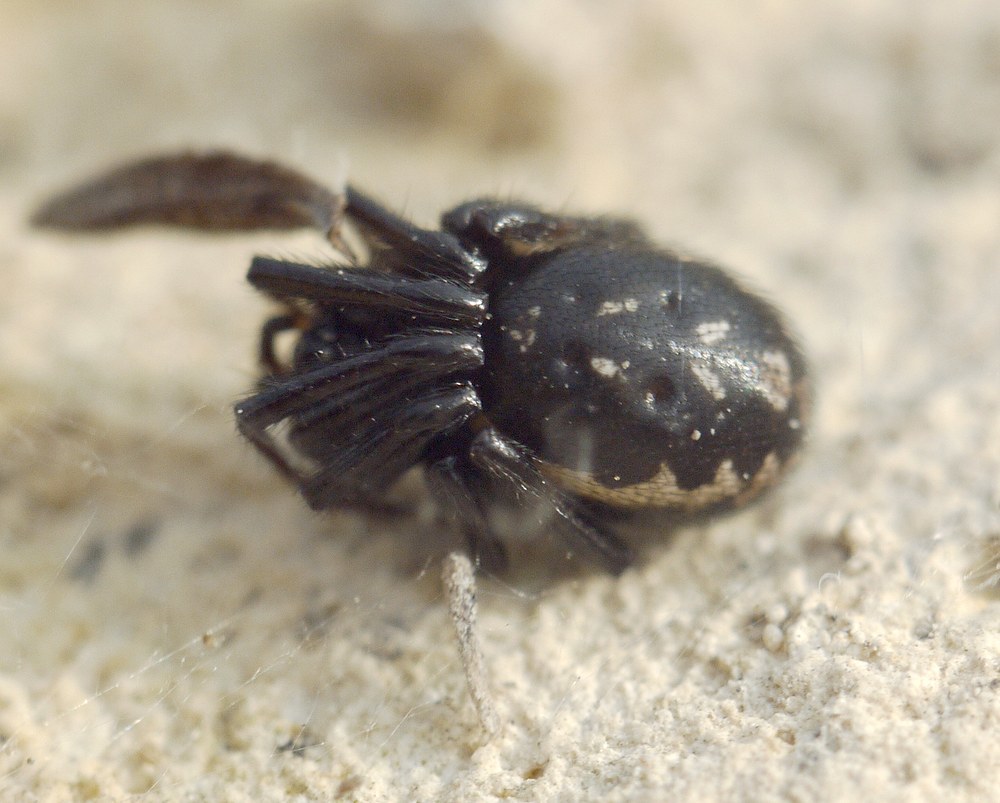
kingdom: Animalia
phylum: Arthropoda
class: Arachnida
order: Araneae
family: Theridiidae
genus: Steatoda
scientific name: Steatoda paykulliana
